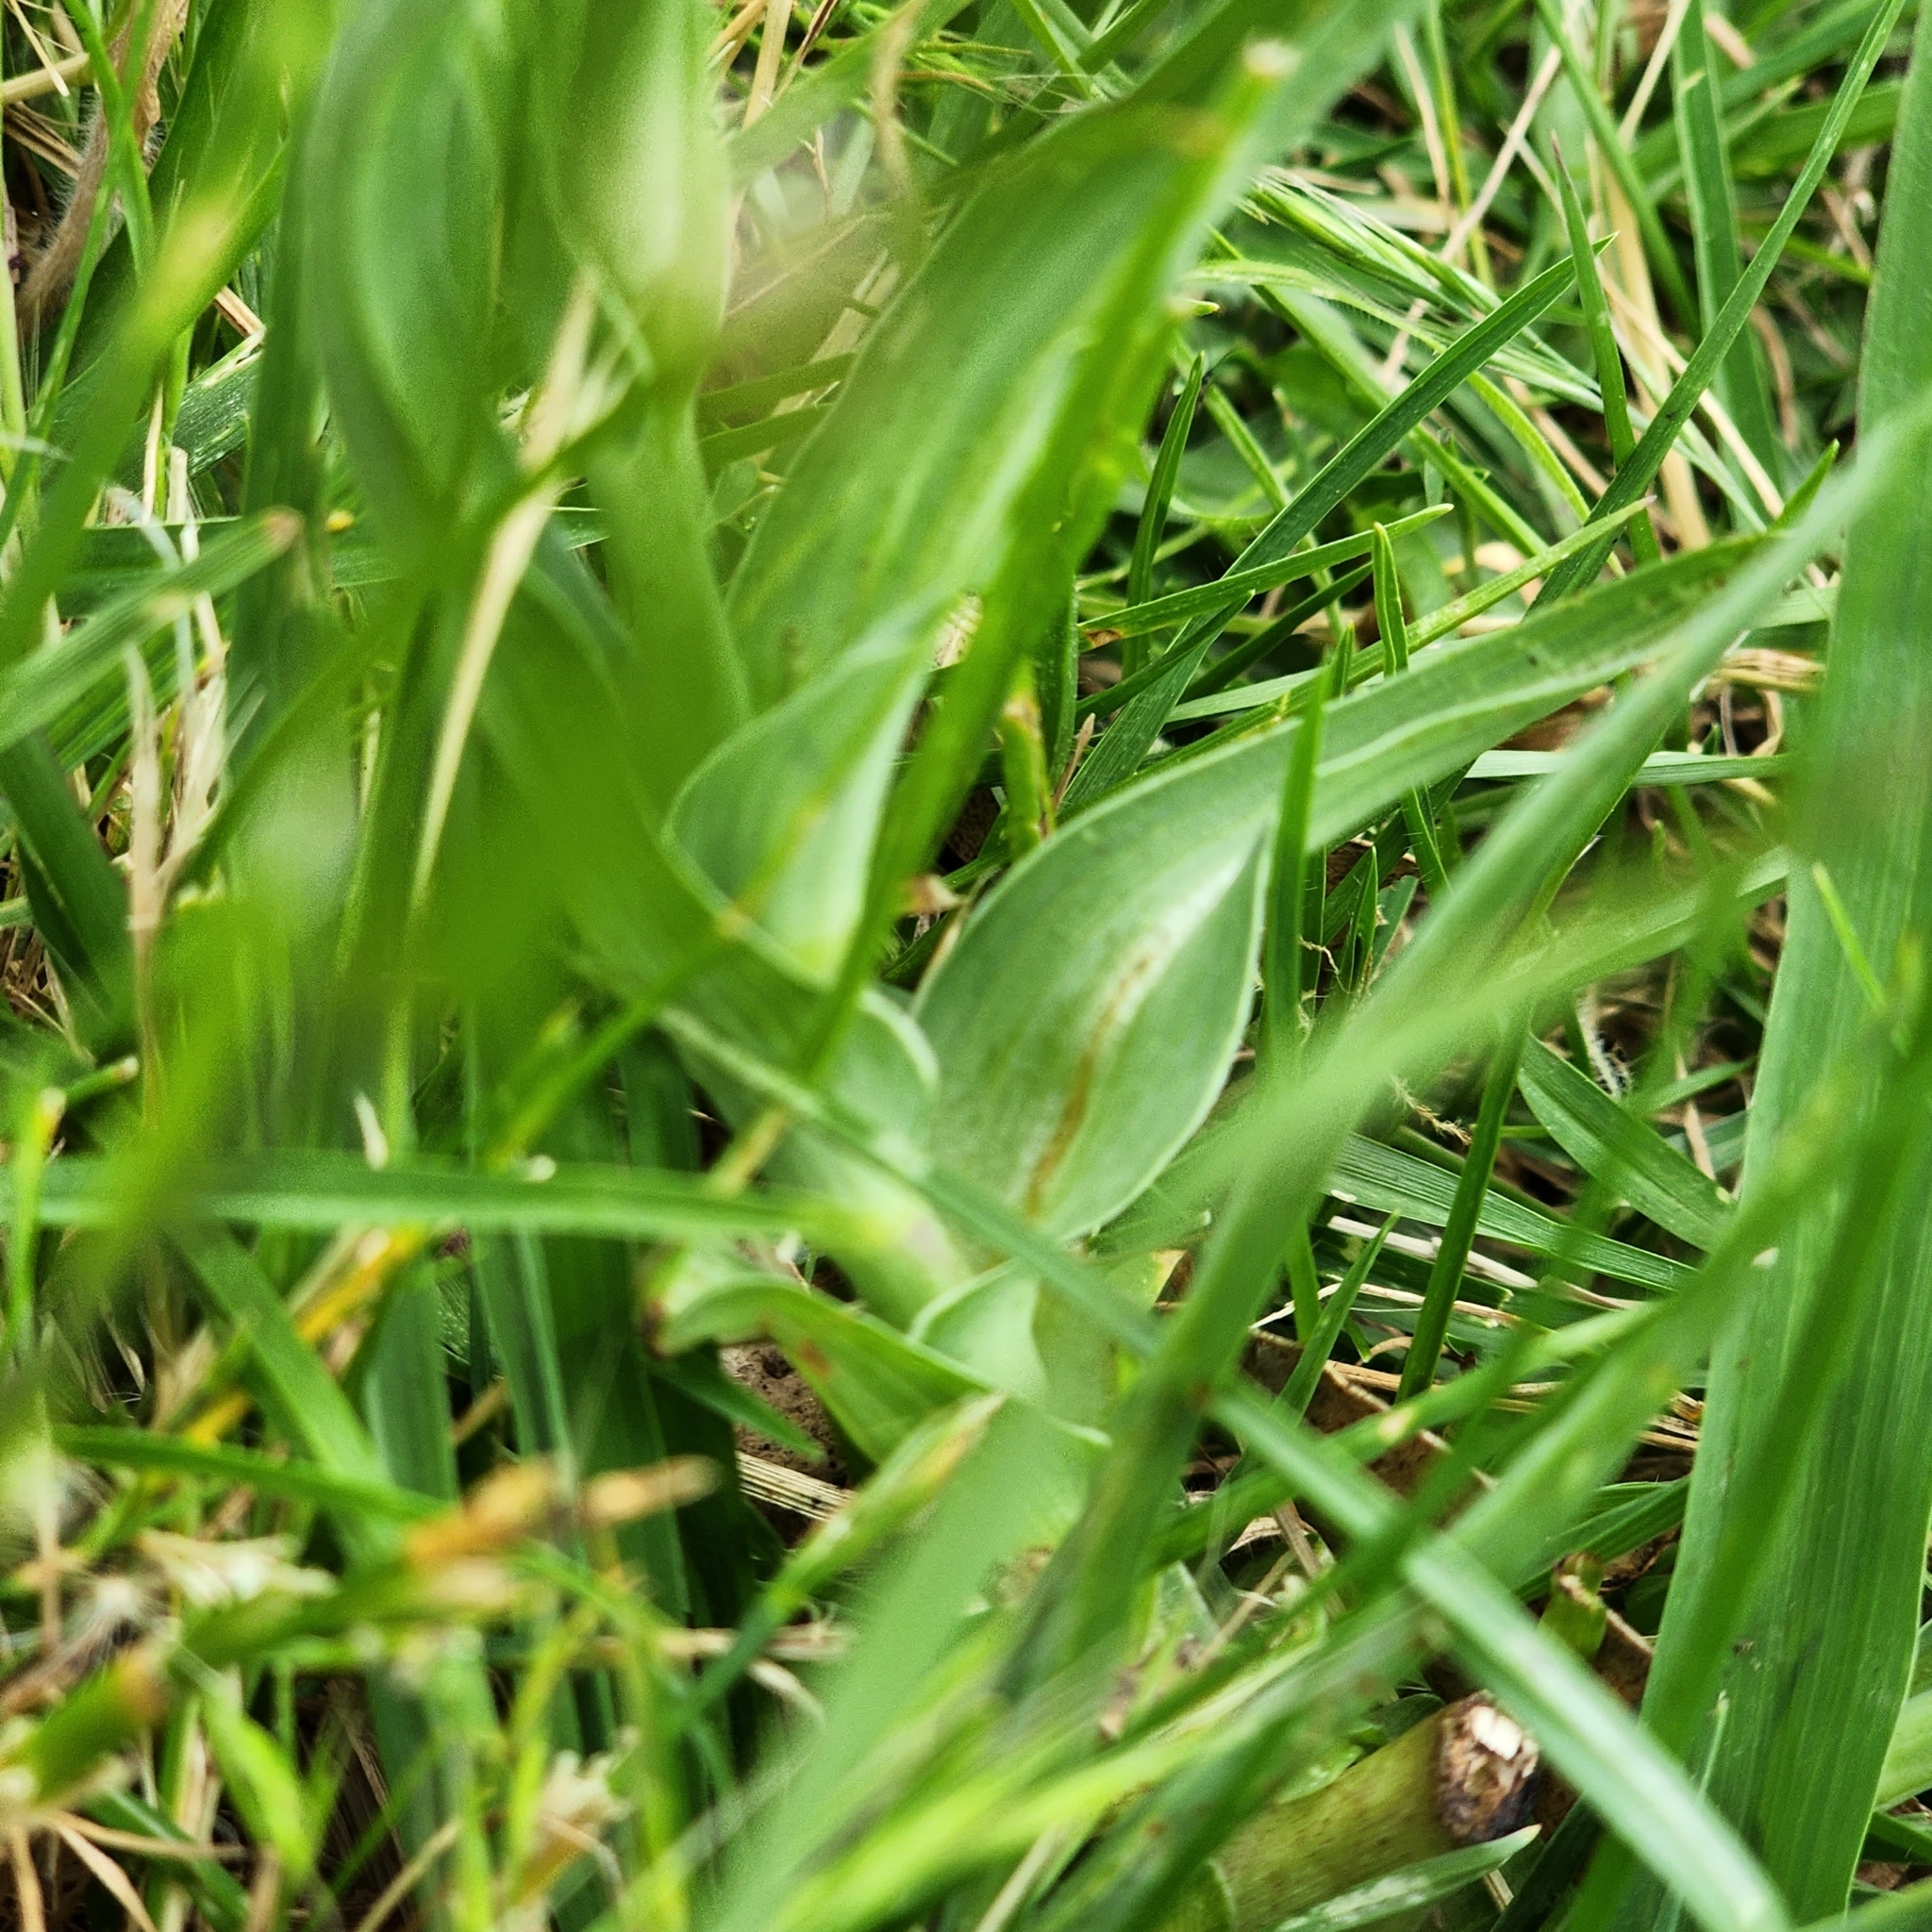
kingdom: Plantae
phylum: Tracheophyta
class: Magnoliopsida
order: Asterales
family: Asteraceae
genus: Tragopogon
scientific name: Tragopogon porrifolius
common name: Salsify
